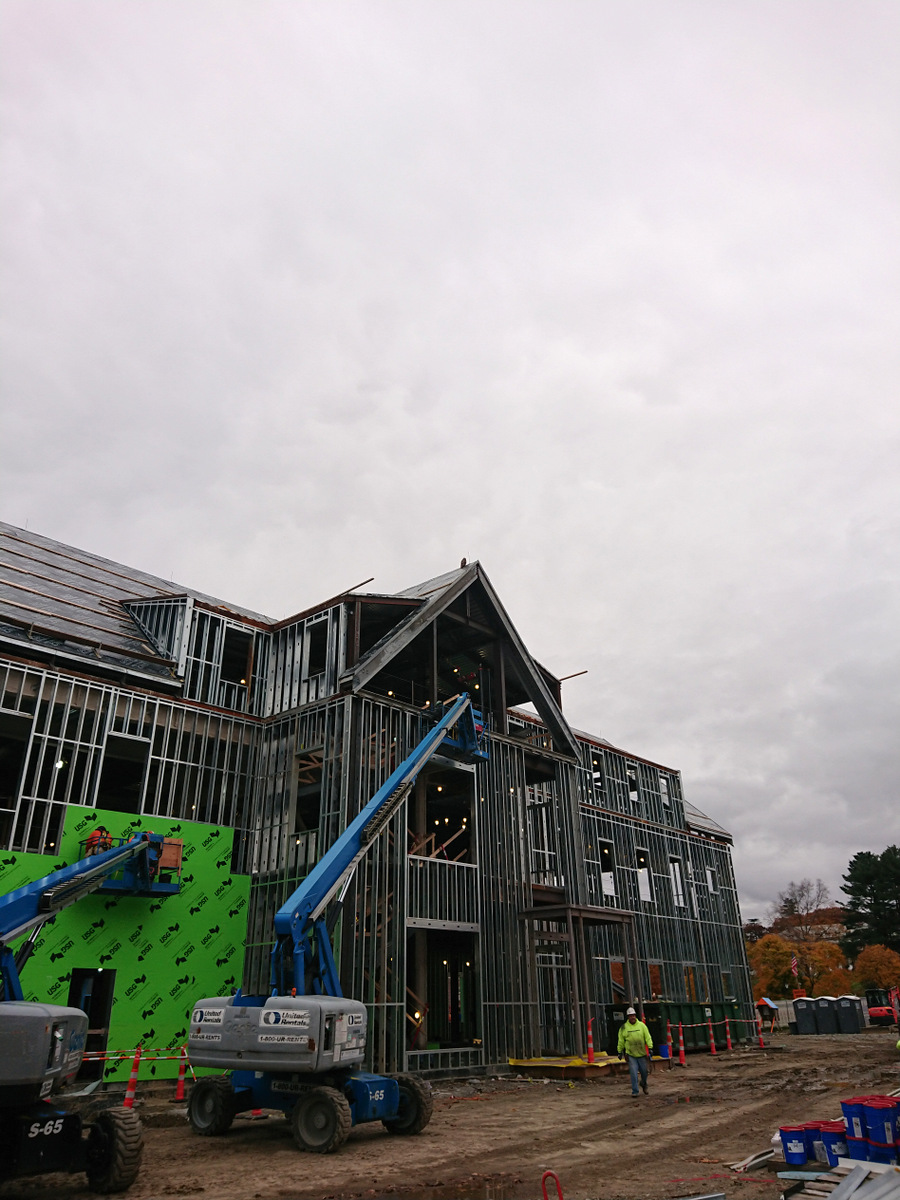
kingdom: Animalia
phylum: Chordata
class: Aves
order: Accipitriformes
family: Accipitridae
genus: Buteo
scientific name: Buteo jamaicensis
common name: Red-tailed hawk
